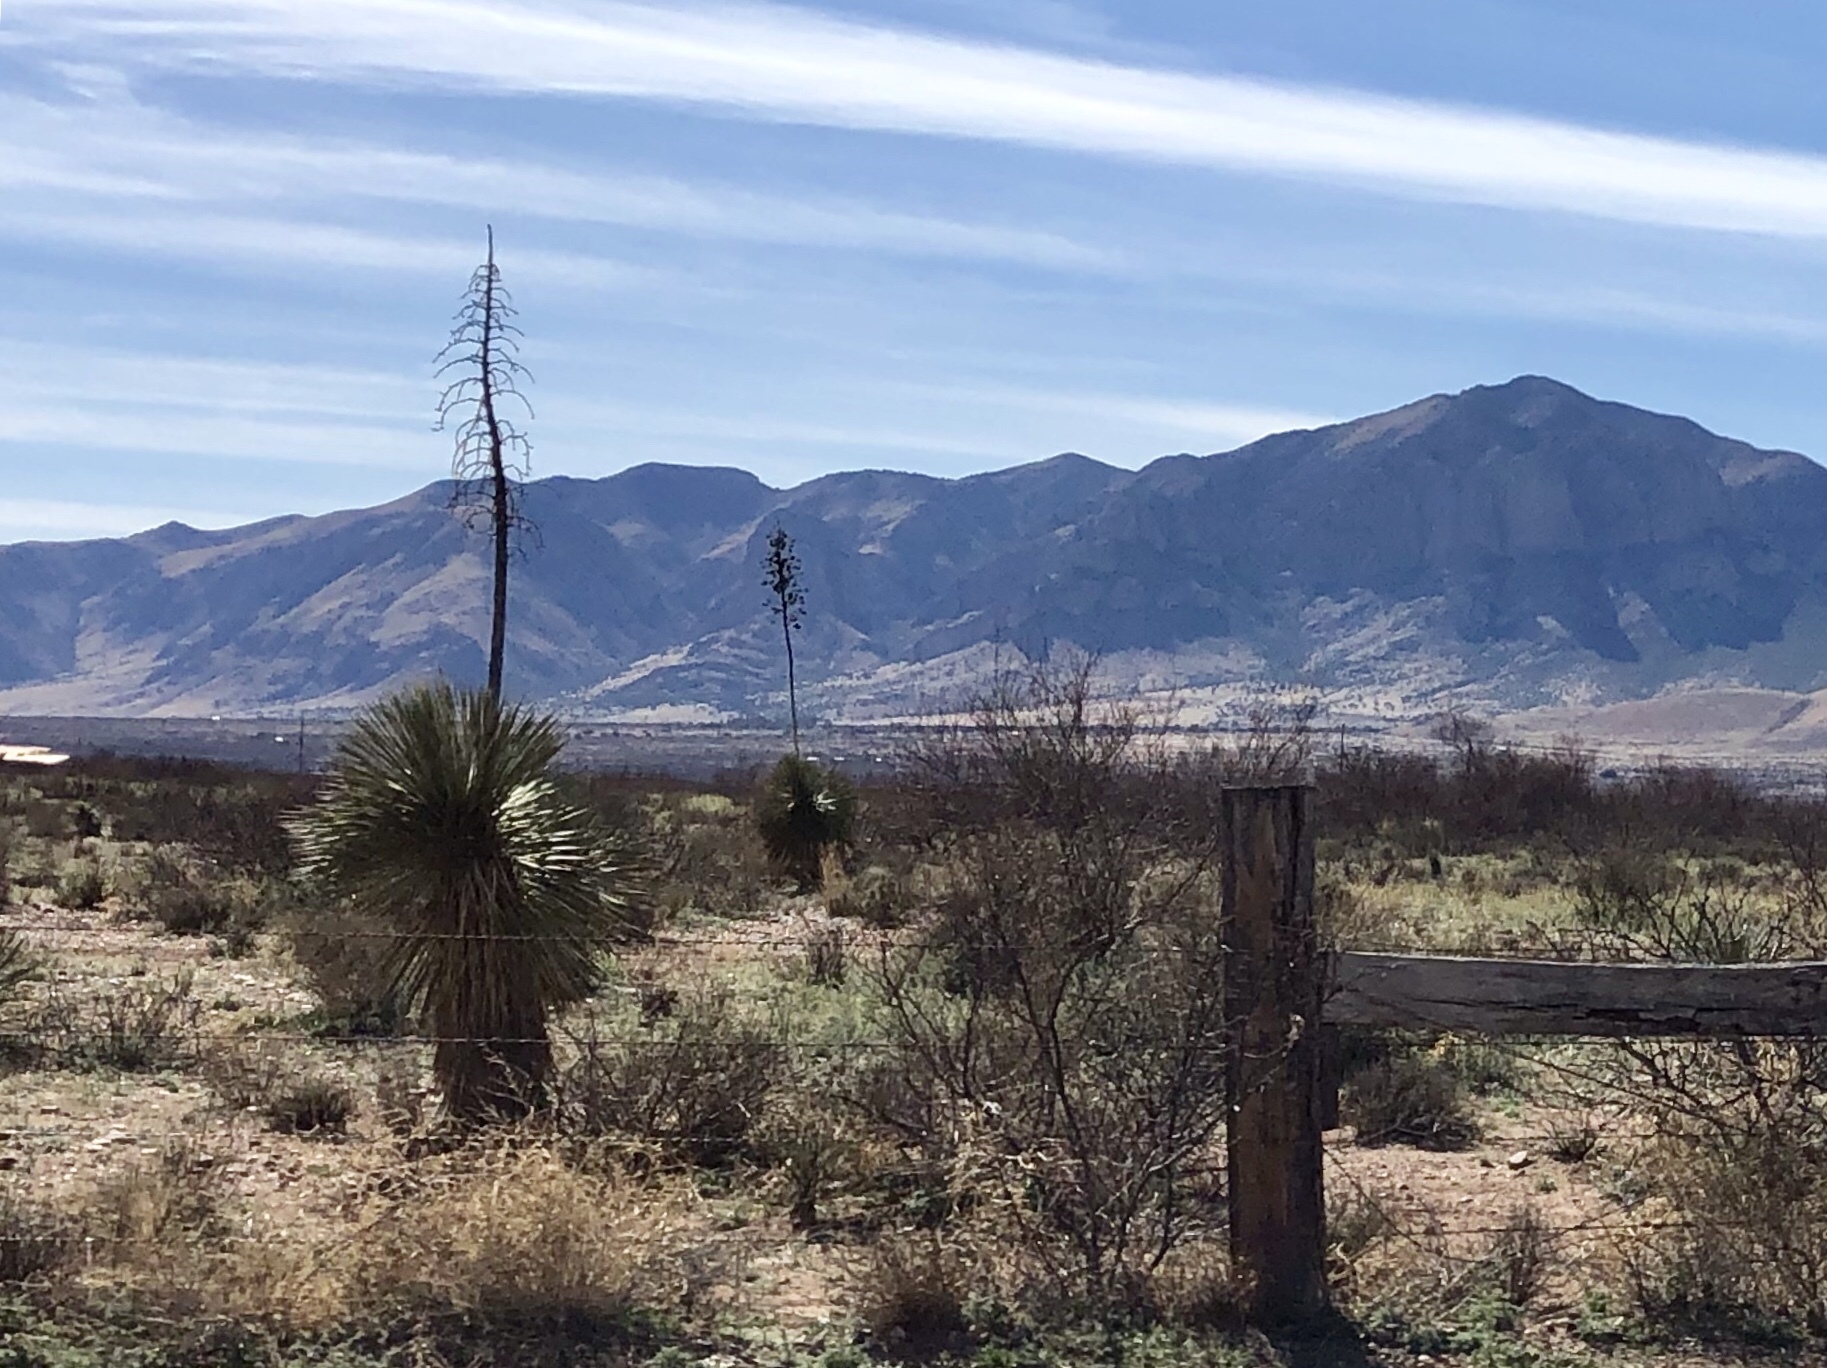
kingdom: Plantae
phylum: Tracheophyta
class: Liliopsida
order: Asparagales
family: Asparagaceae
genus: Yucca
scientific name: Yucca elata
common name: Palmella
